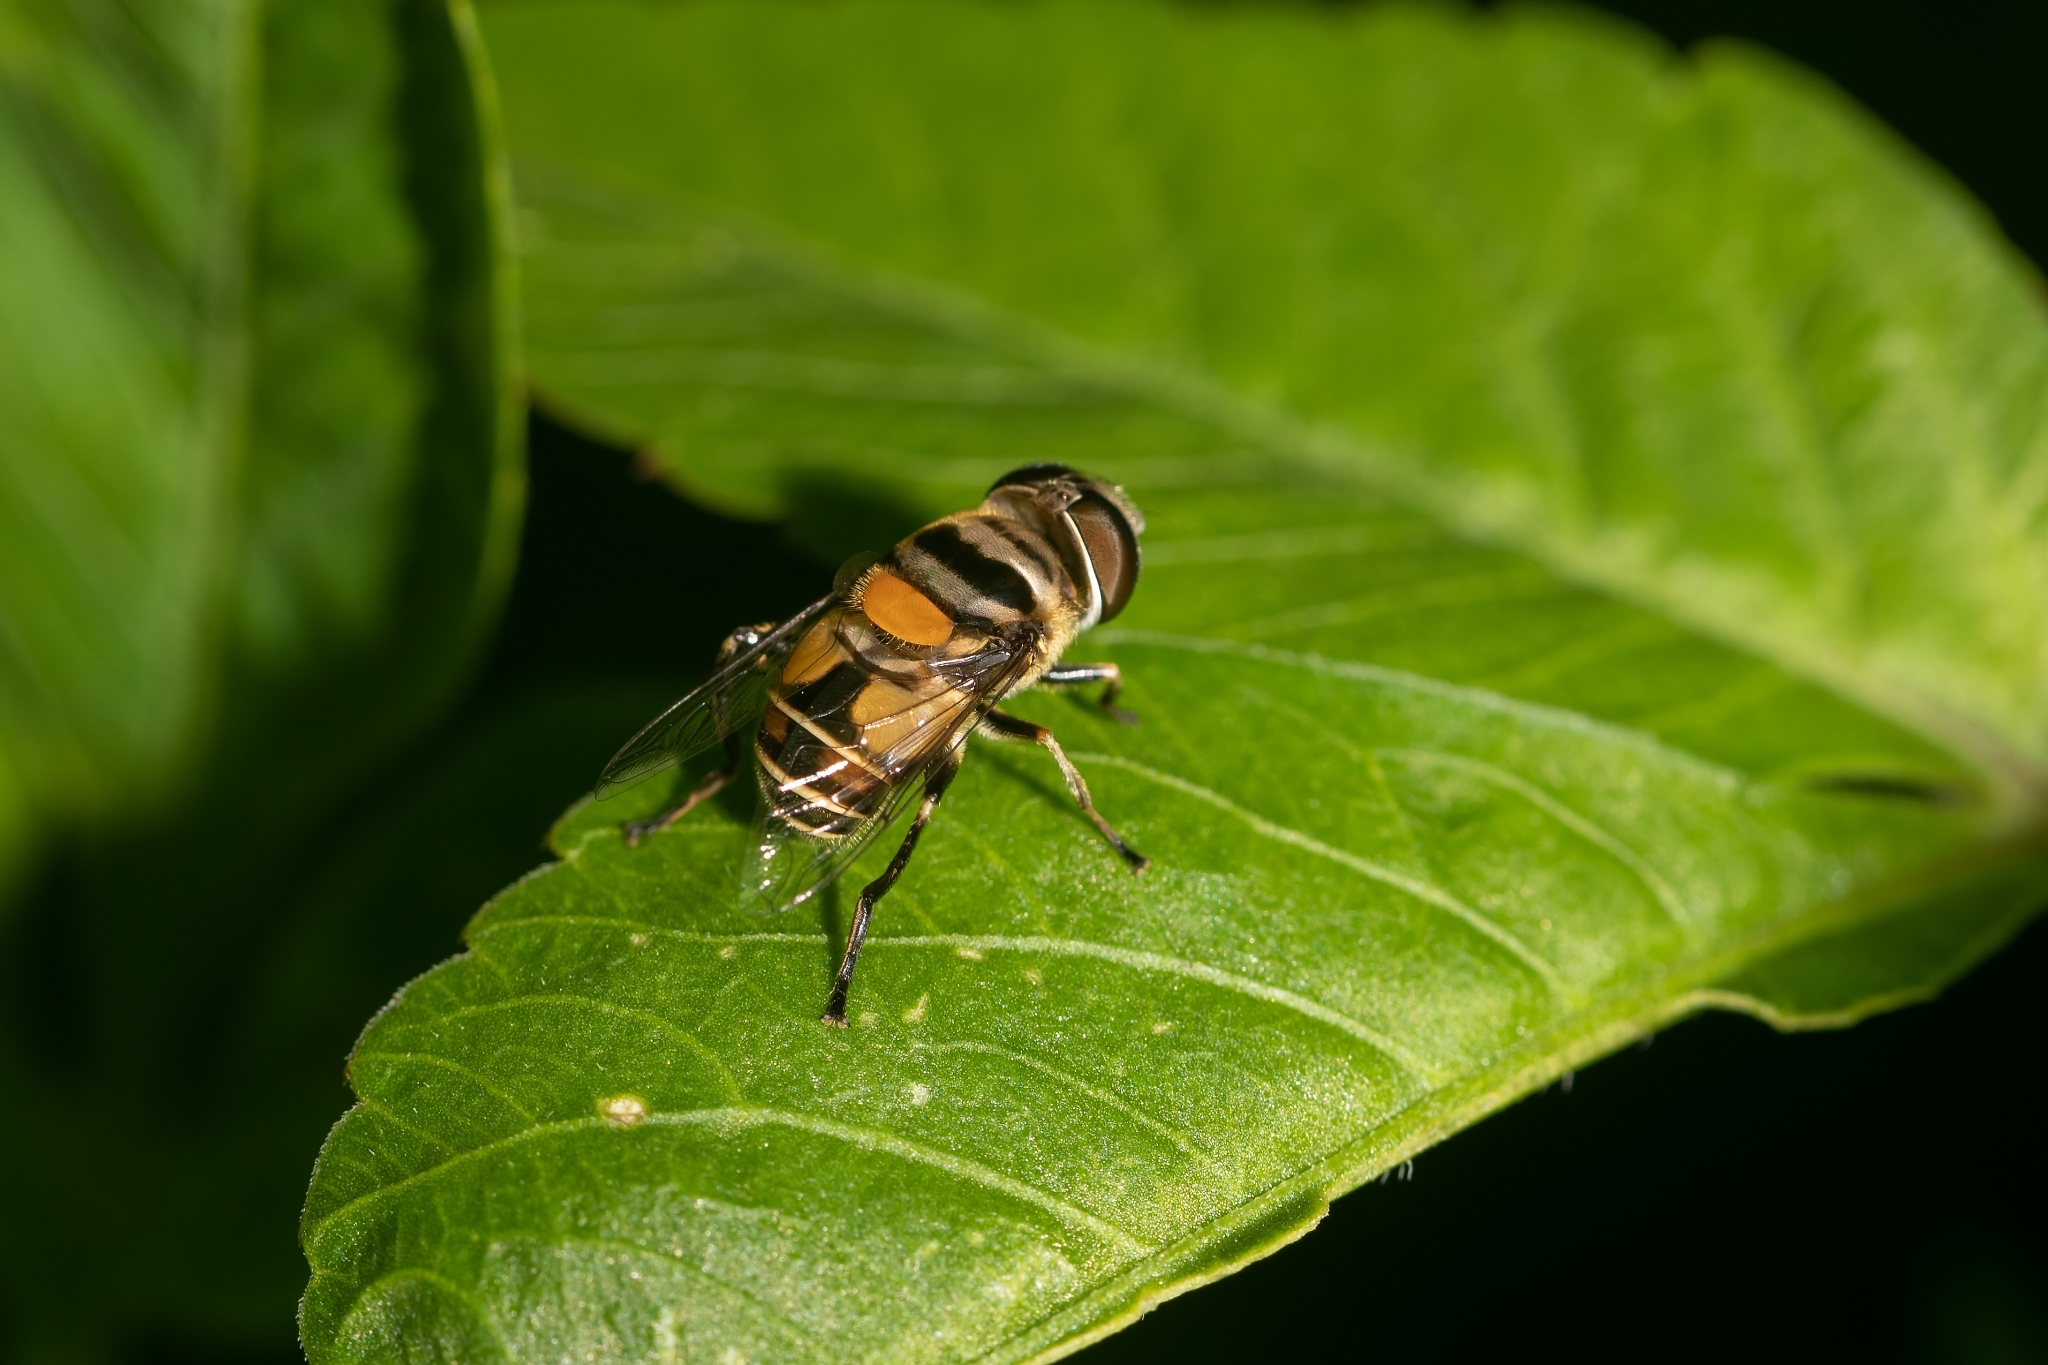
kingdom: Animalia
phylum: Arthropoda
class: Insecta
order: Diptera
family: Syrphidae
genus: Palpada
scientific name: Palpada agrorum
